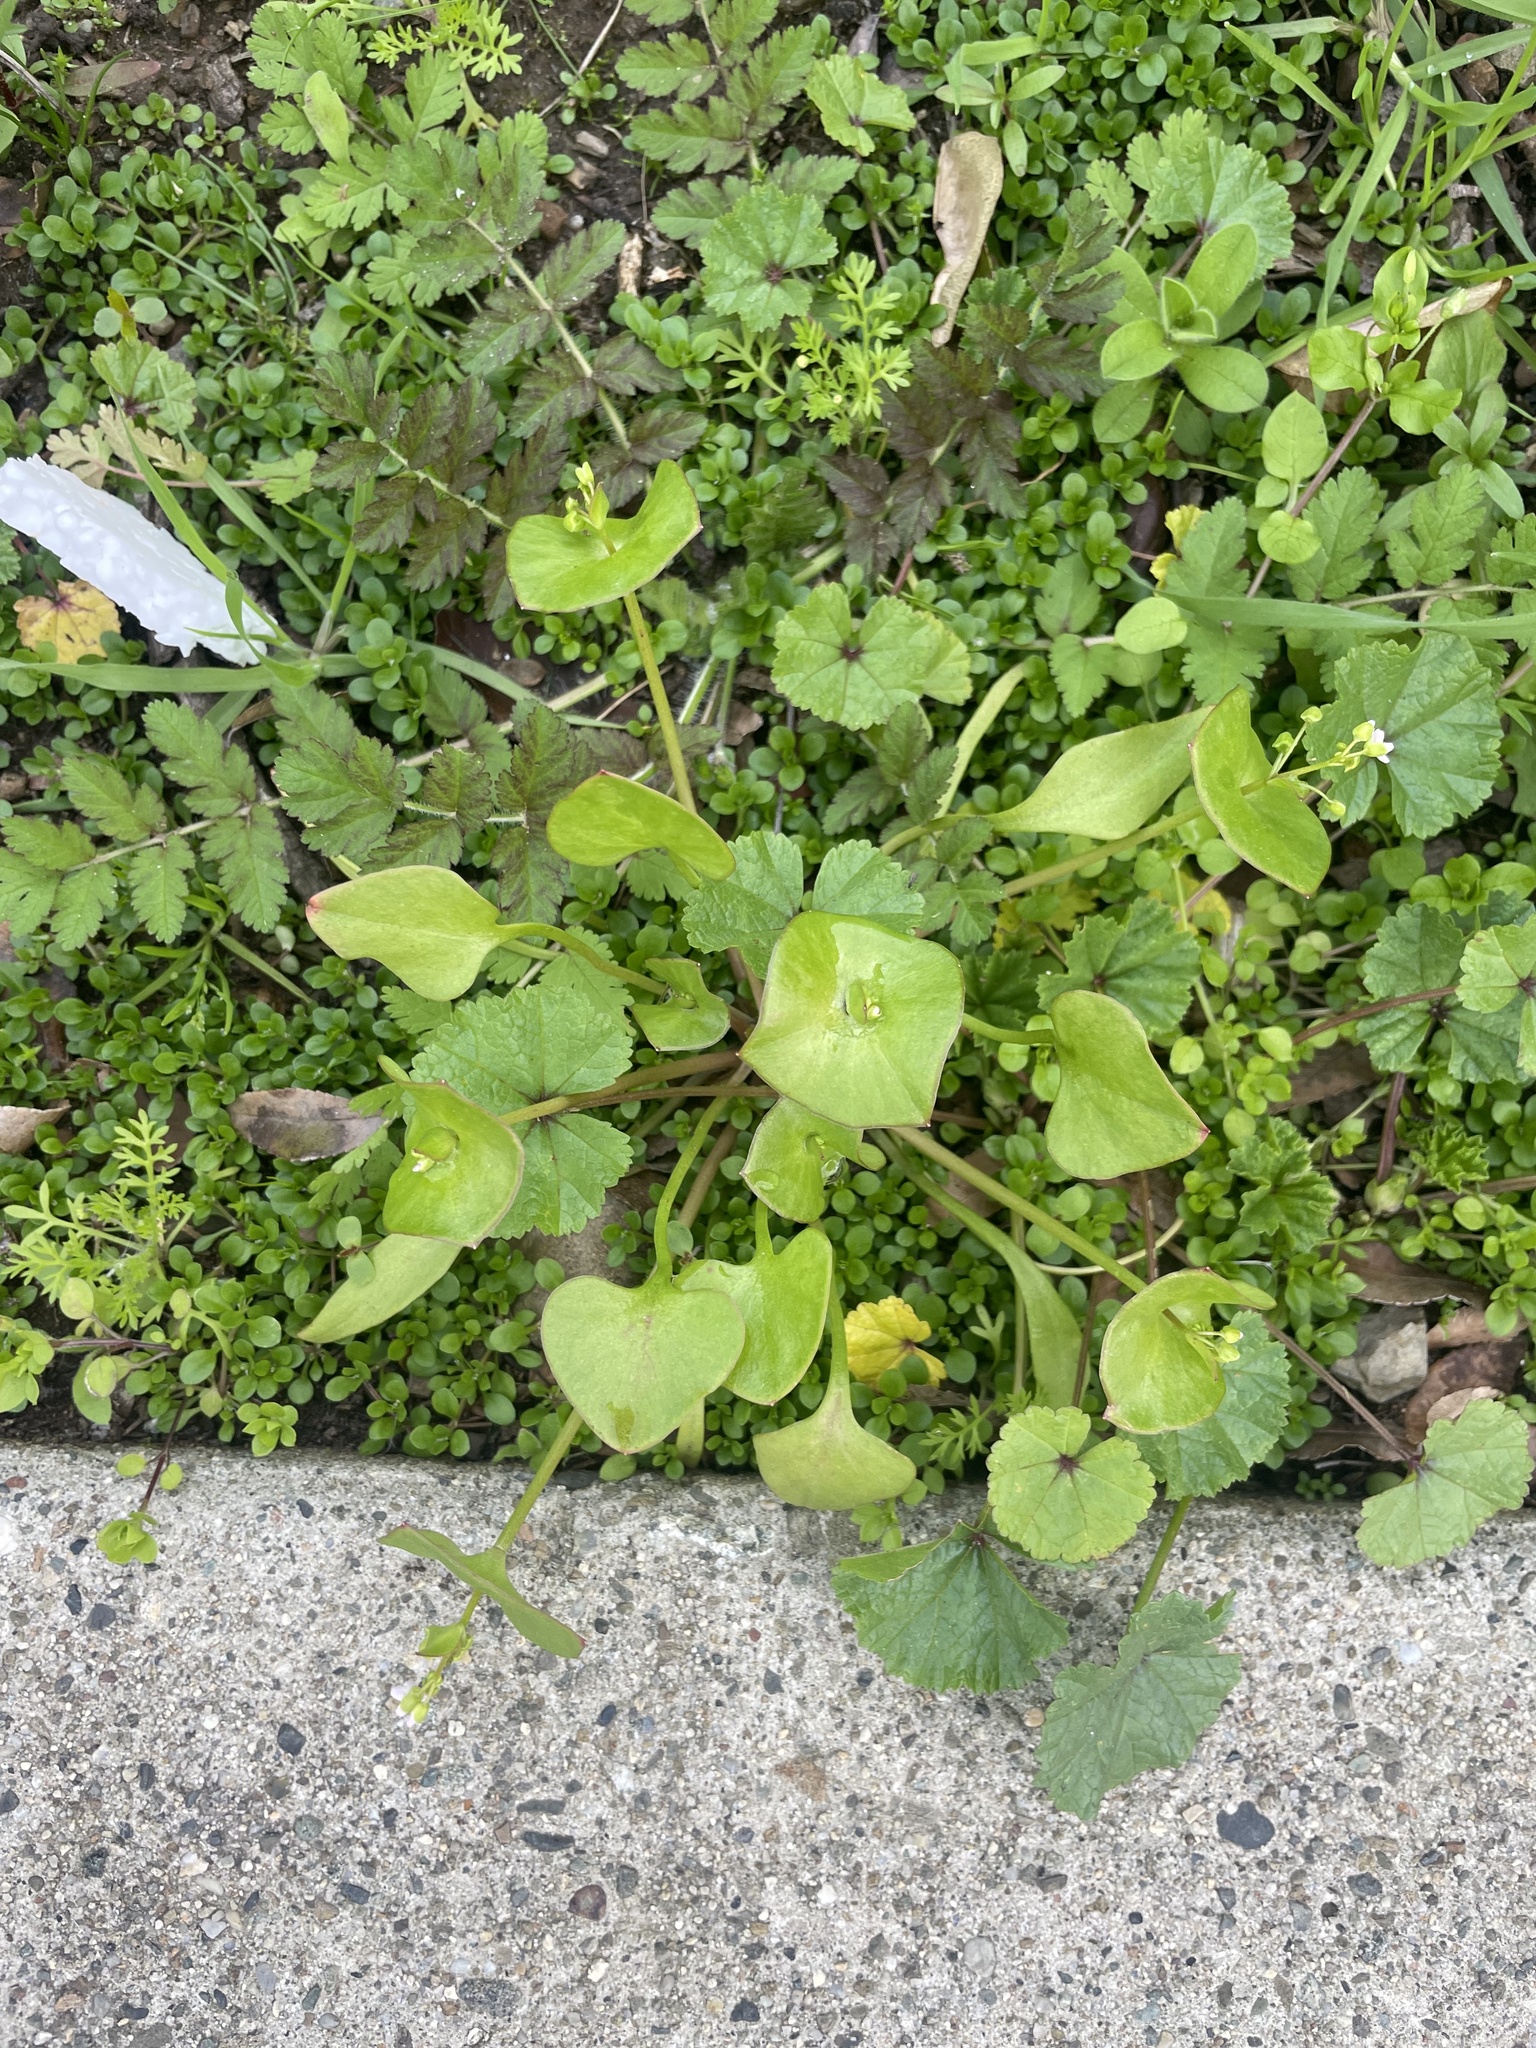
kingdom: Plantae
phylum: Tracheophyta
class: Magnoliopsida
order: Caryophyllales
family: Montiaceae
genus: Claytonia
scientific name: Claytonia perfoliata
